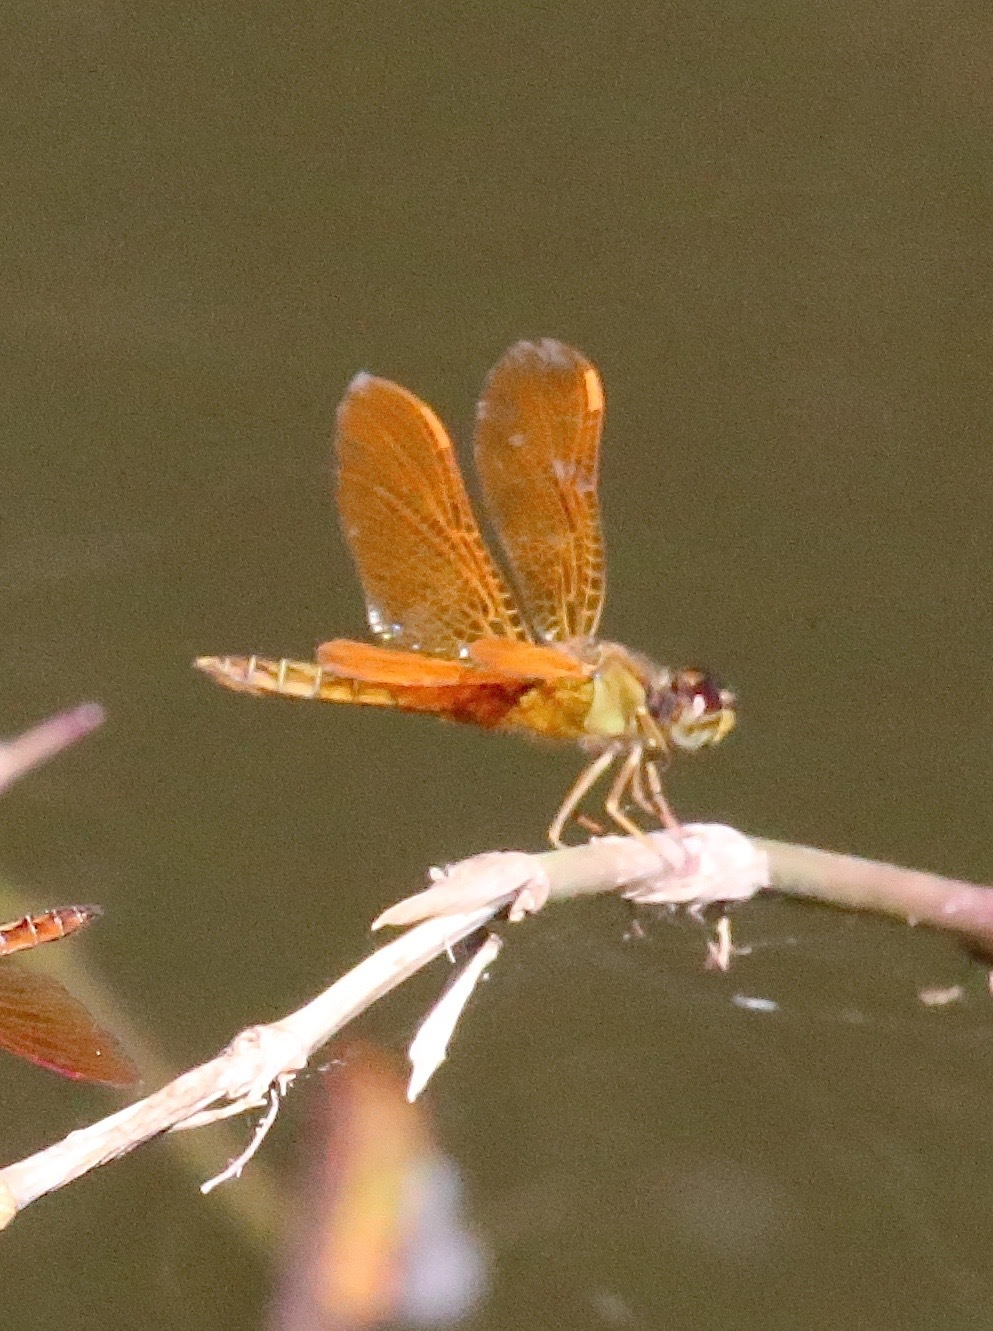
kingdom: Animalia
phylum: Arthropoda
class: Insecta
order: Odonata
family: Libellulidae
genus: Perithemis
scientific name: Perithemis intensa
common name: Mexican amberwing
